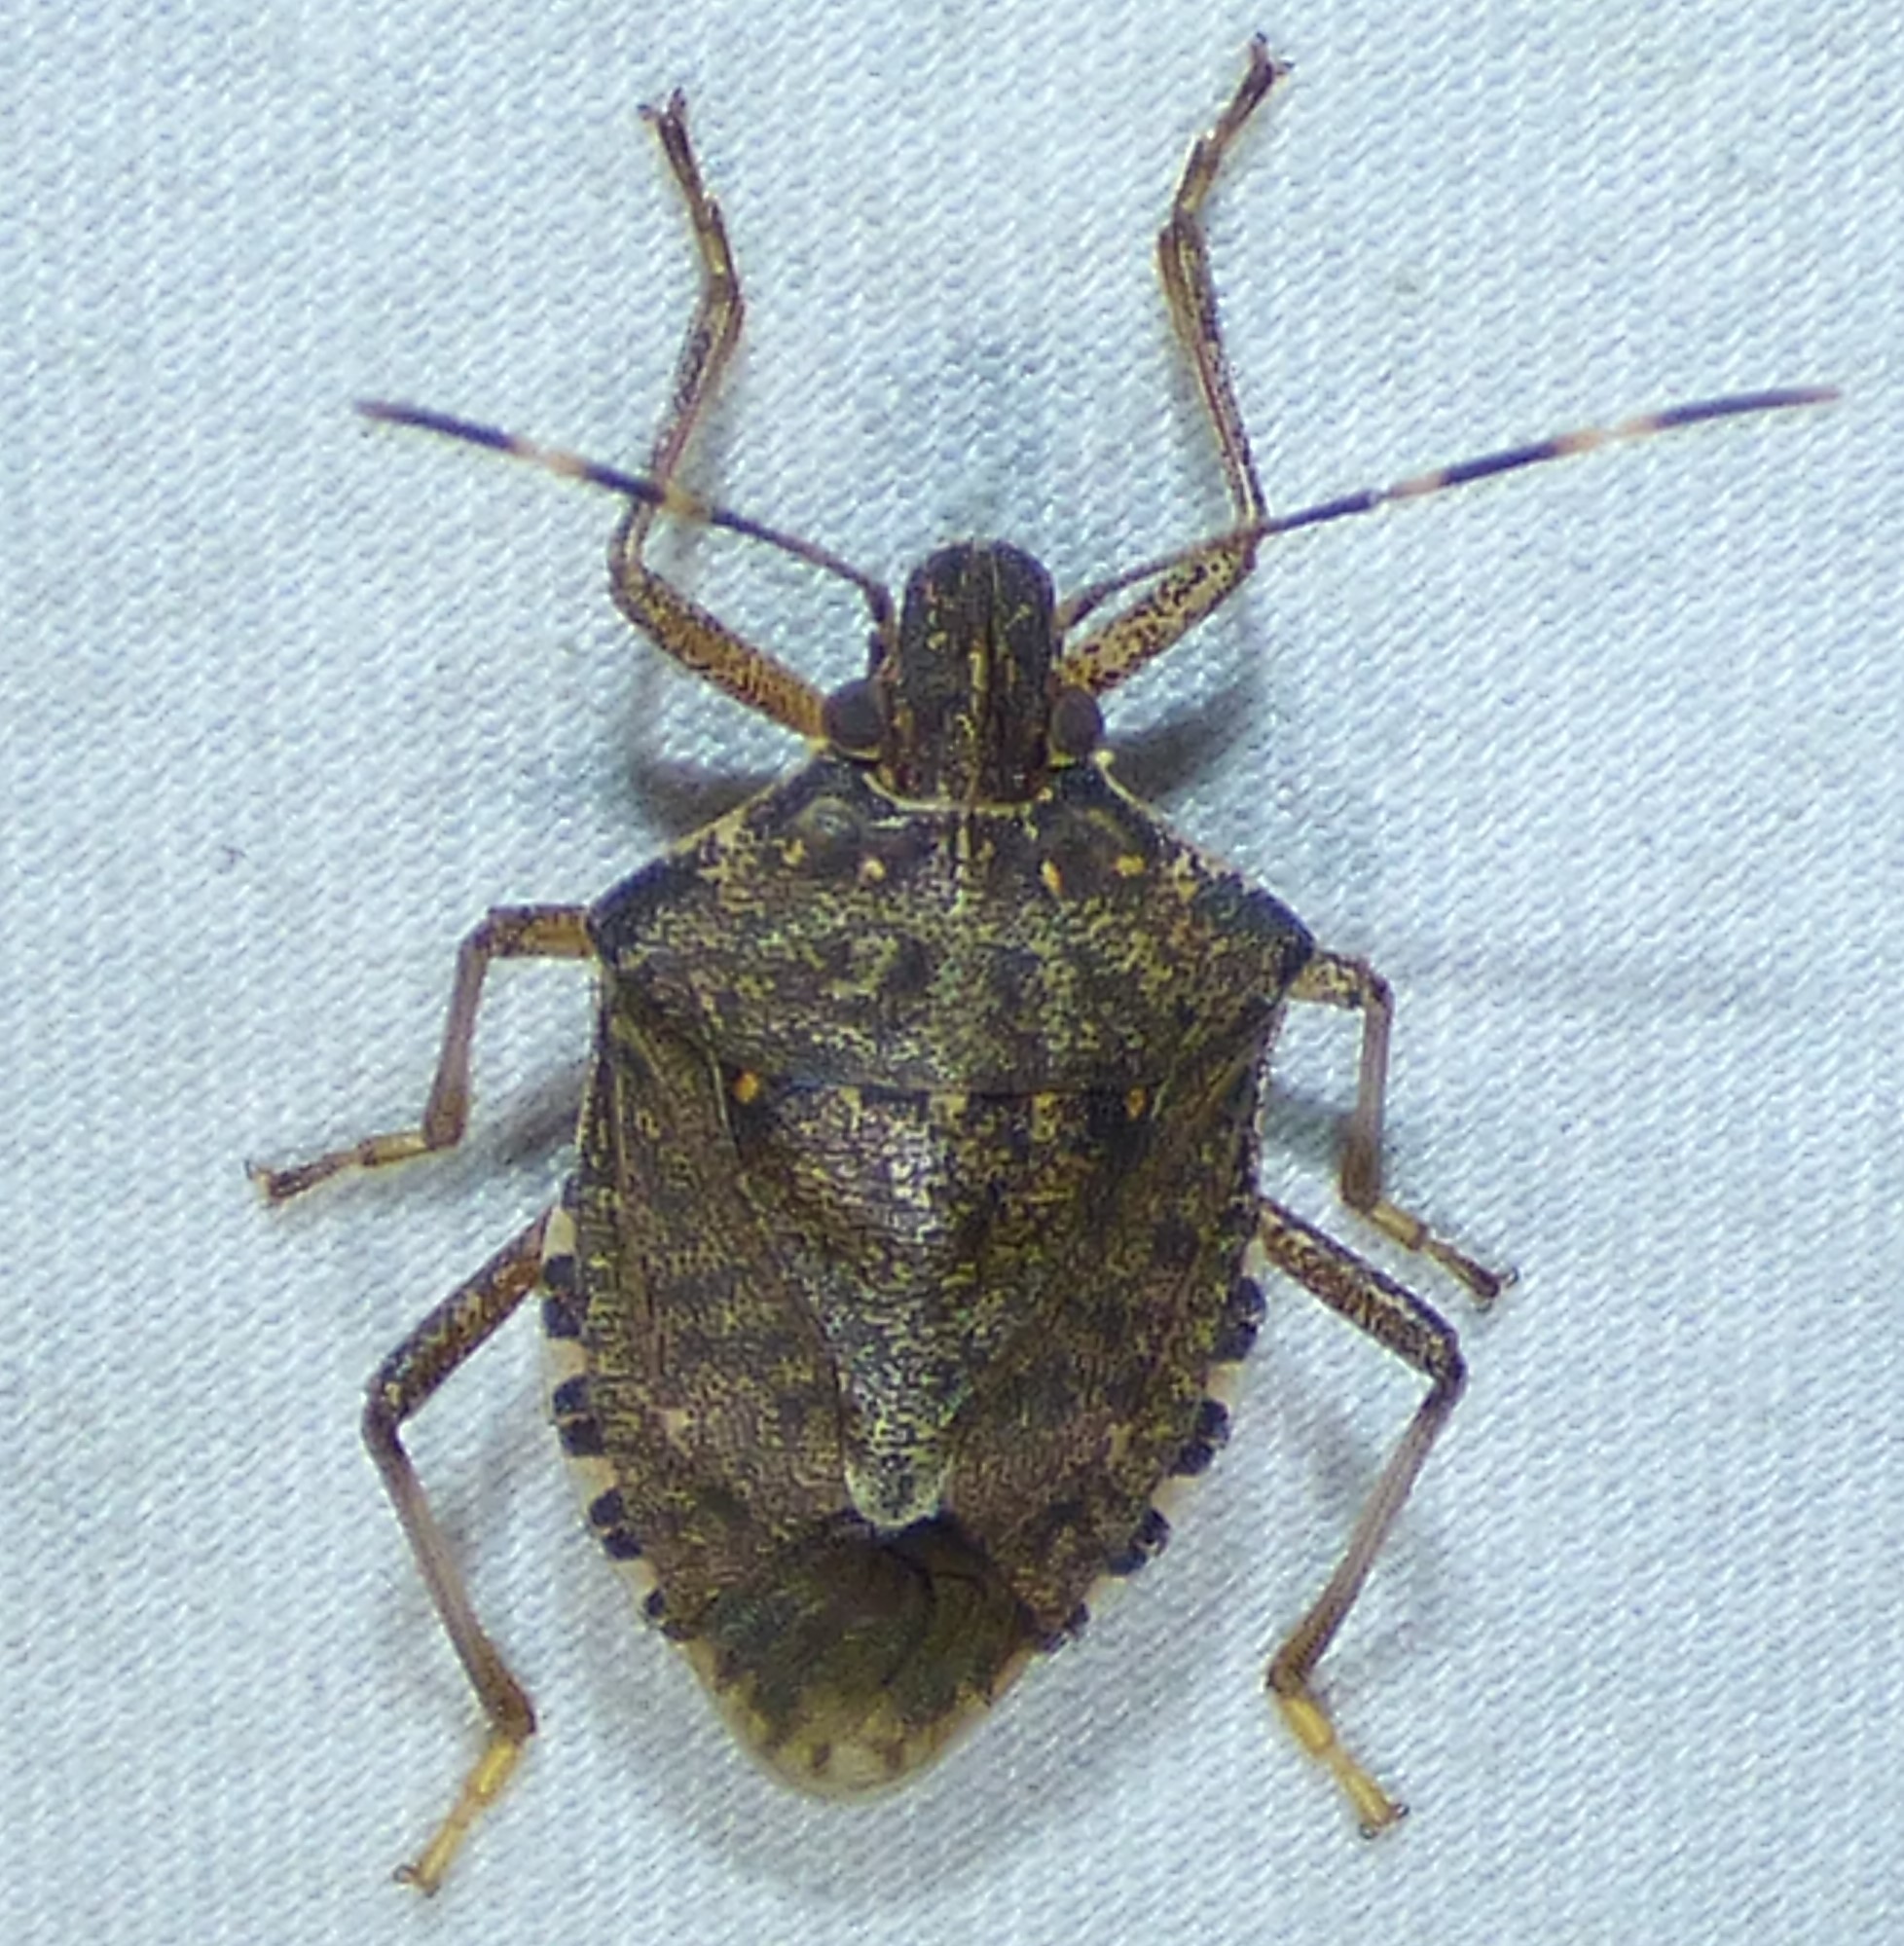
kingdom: Animalia
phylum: Arthropoda
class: Insecta
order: Hemiptera
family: Pentatomidae
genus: Halyomorpha
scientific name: Halyomorpha halys
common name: Brown marmorated stink bug
